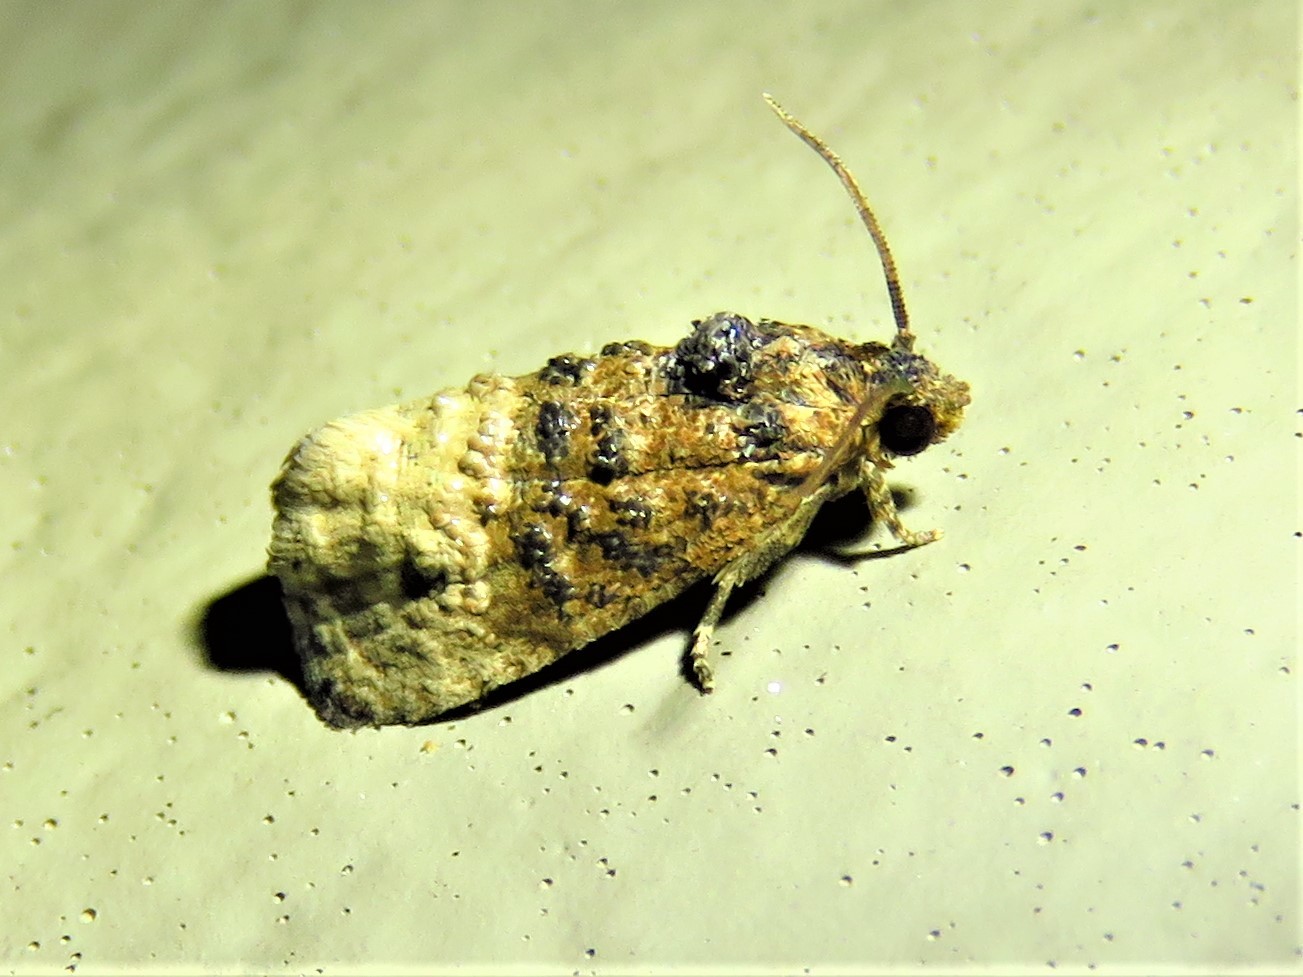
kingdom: Animalia
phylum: Arthropoda
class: Insecta
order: Lepidoptera
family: Tortricidae
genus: Ecdytolopha
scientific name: Ecdytolopha mana
